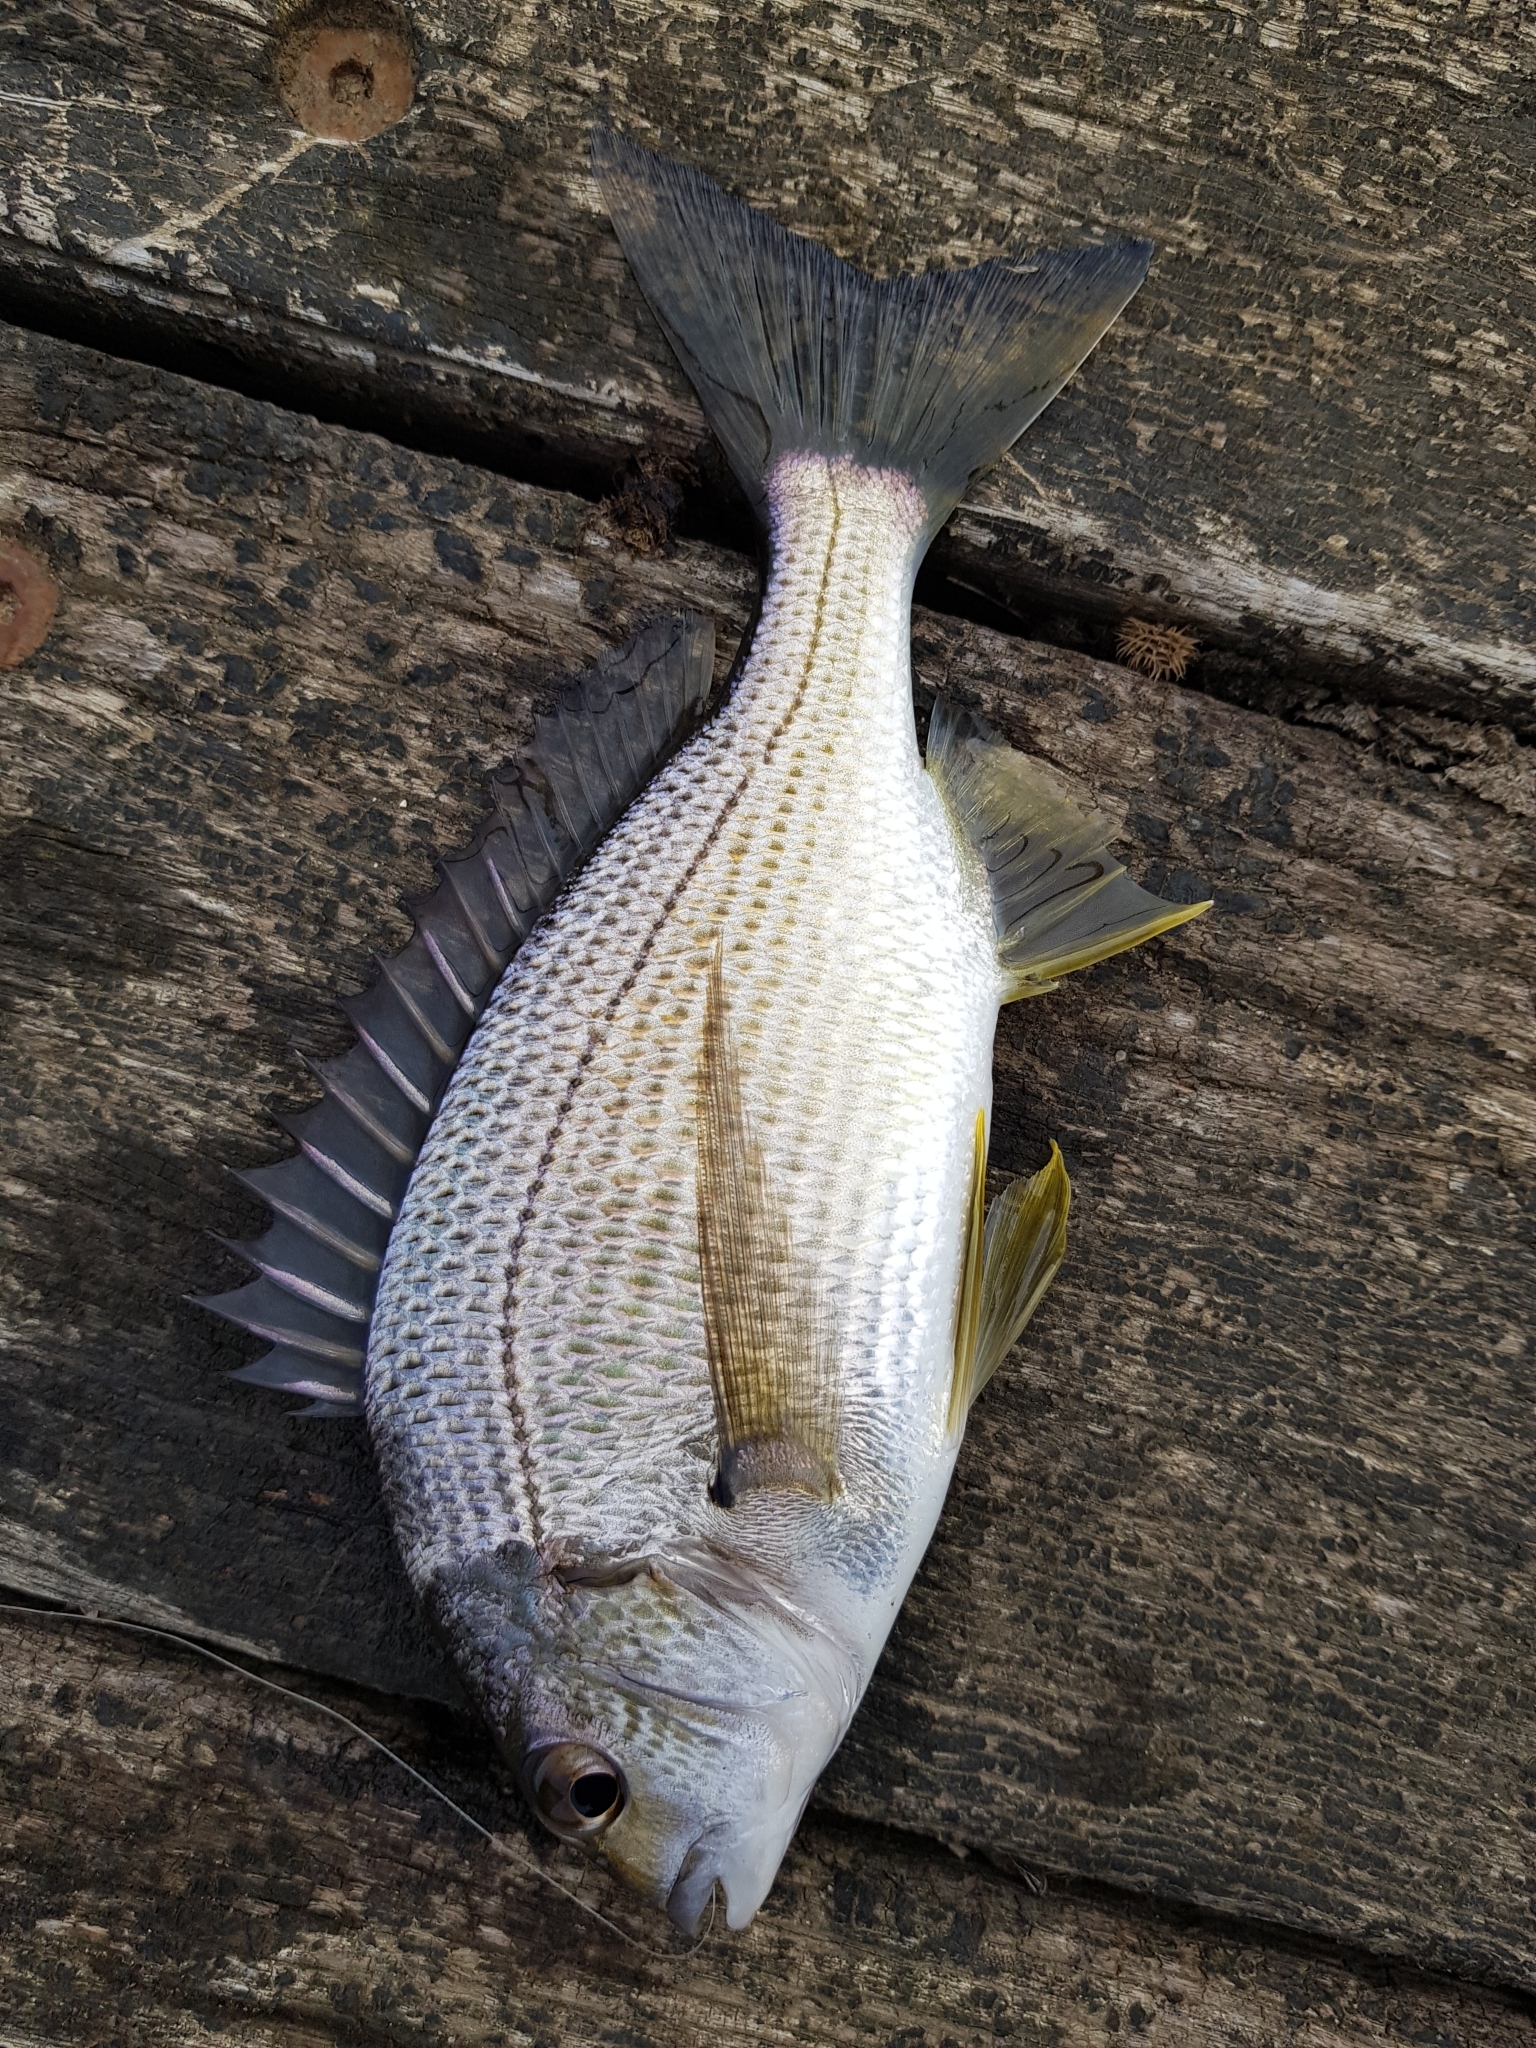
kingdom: Animalia
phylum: Chordata
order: Perciformes
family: Sparidae
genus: Acanthopagrus
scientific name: Acanthopagrus butcheri
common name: Black bream
